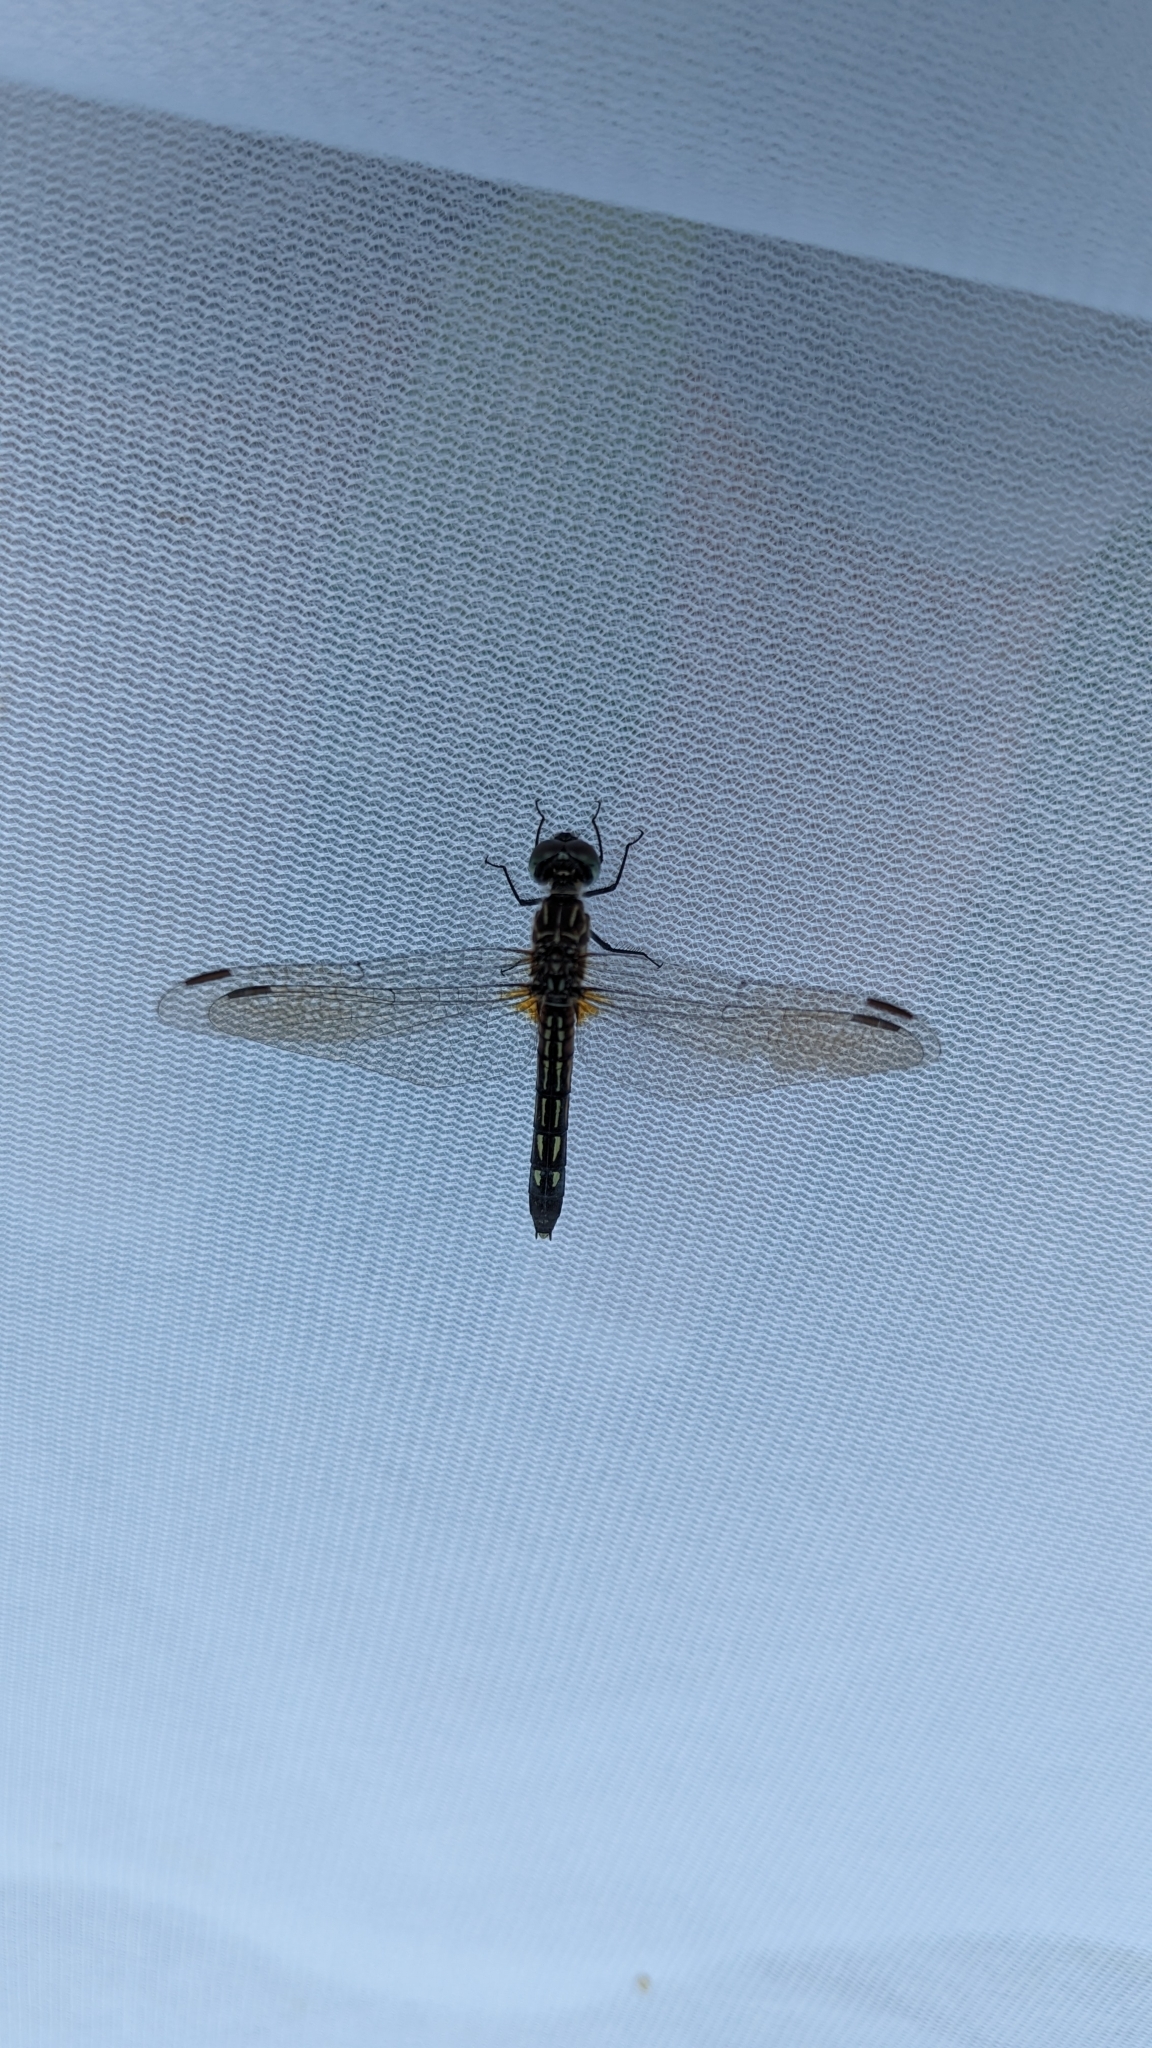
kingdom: Animalia
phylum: Arthropoda
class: Insecta
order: Odonata
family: Libellulidae
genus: Pachydiplax
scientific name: Pachydiplax longipennis
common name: Blue dasher
